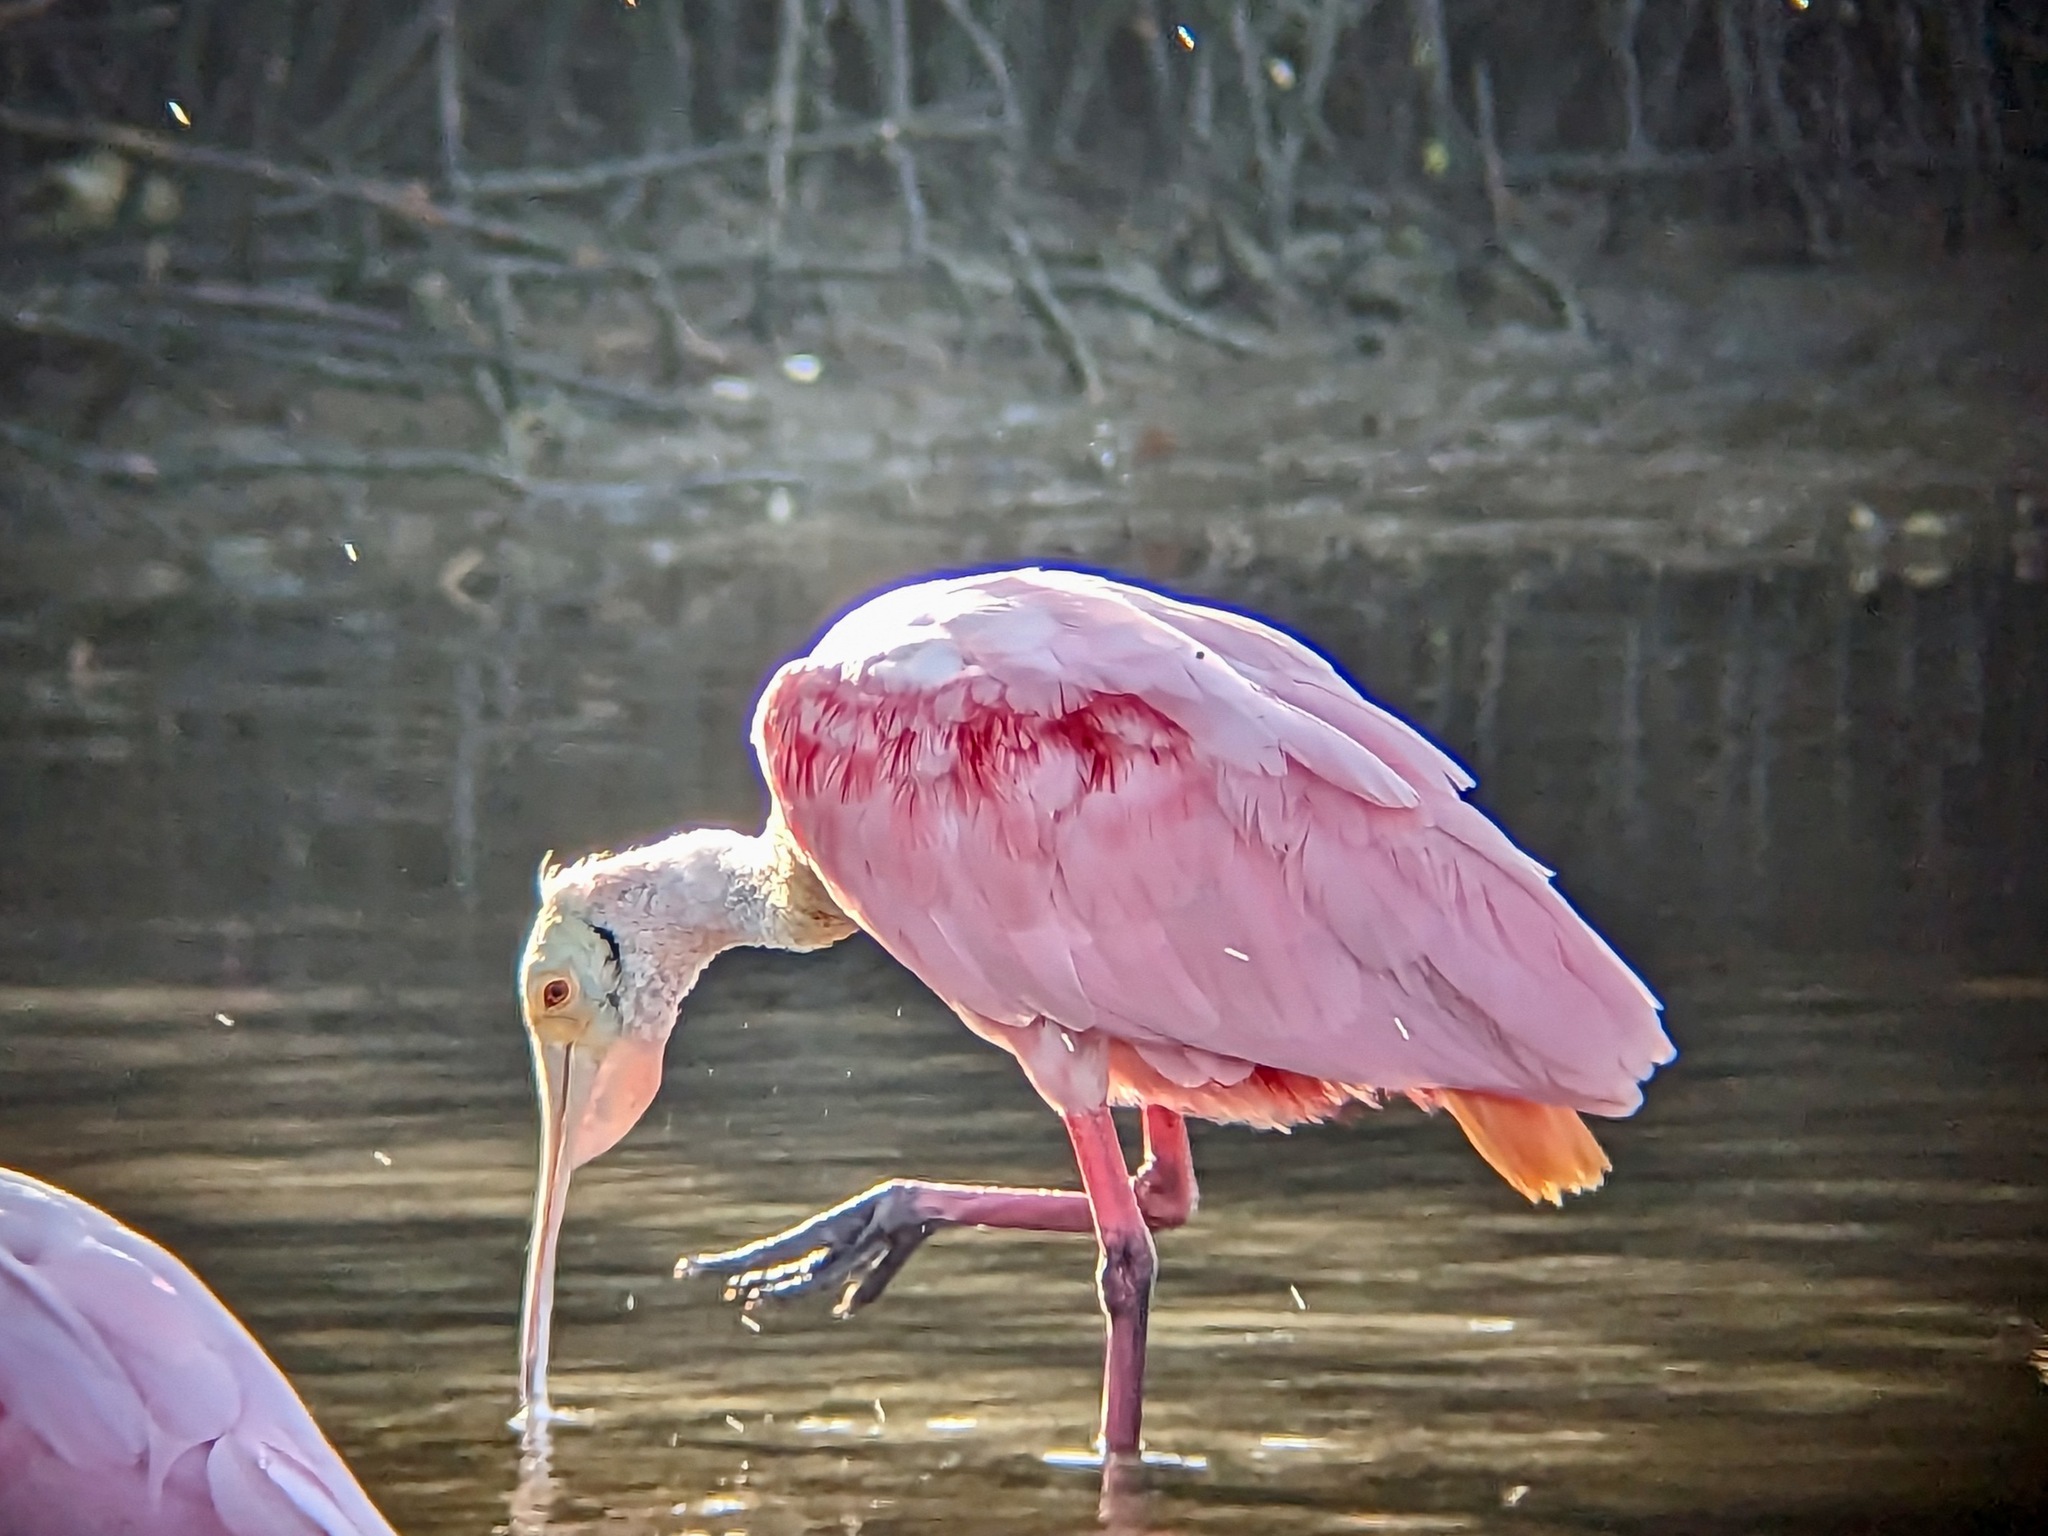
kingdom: Animalia
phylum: Chordata
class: Aves
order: Pelecaniformes
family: Threskiornithidae
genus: Platalea
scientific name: Platalea ajaja
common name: Roseate spoonbill
